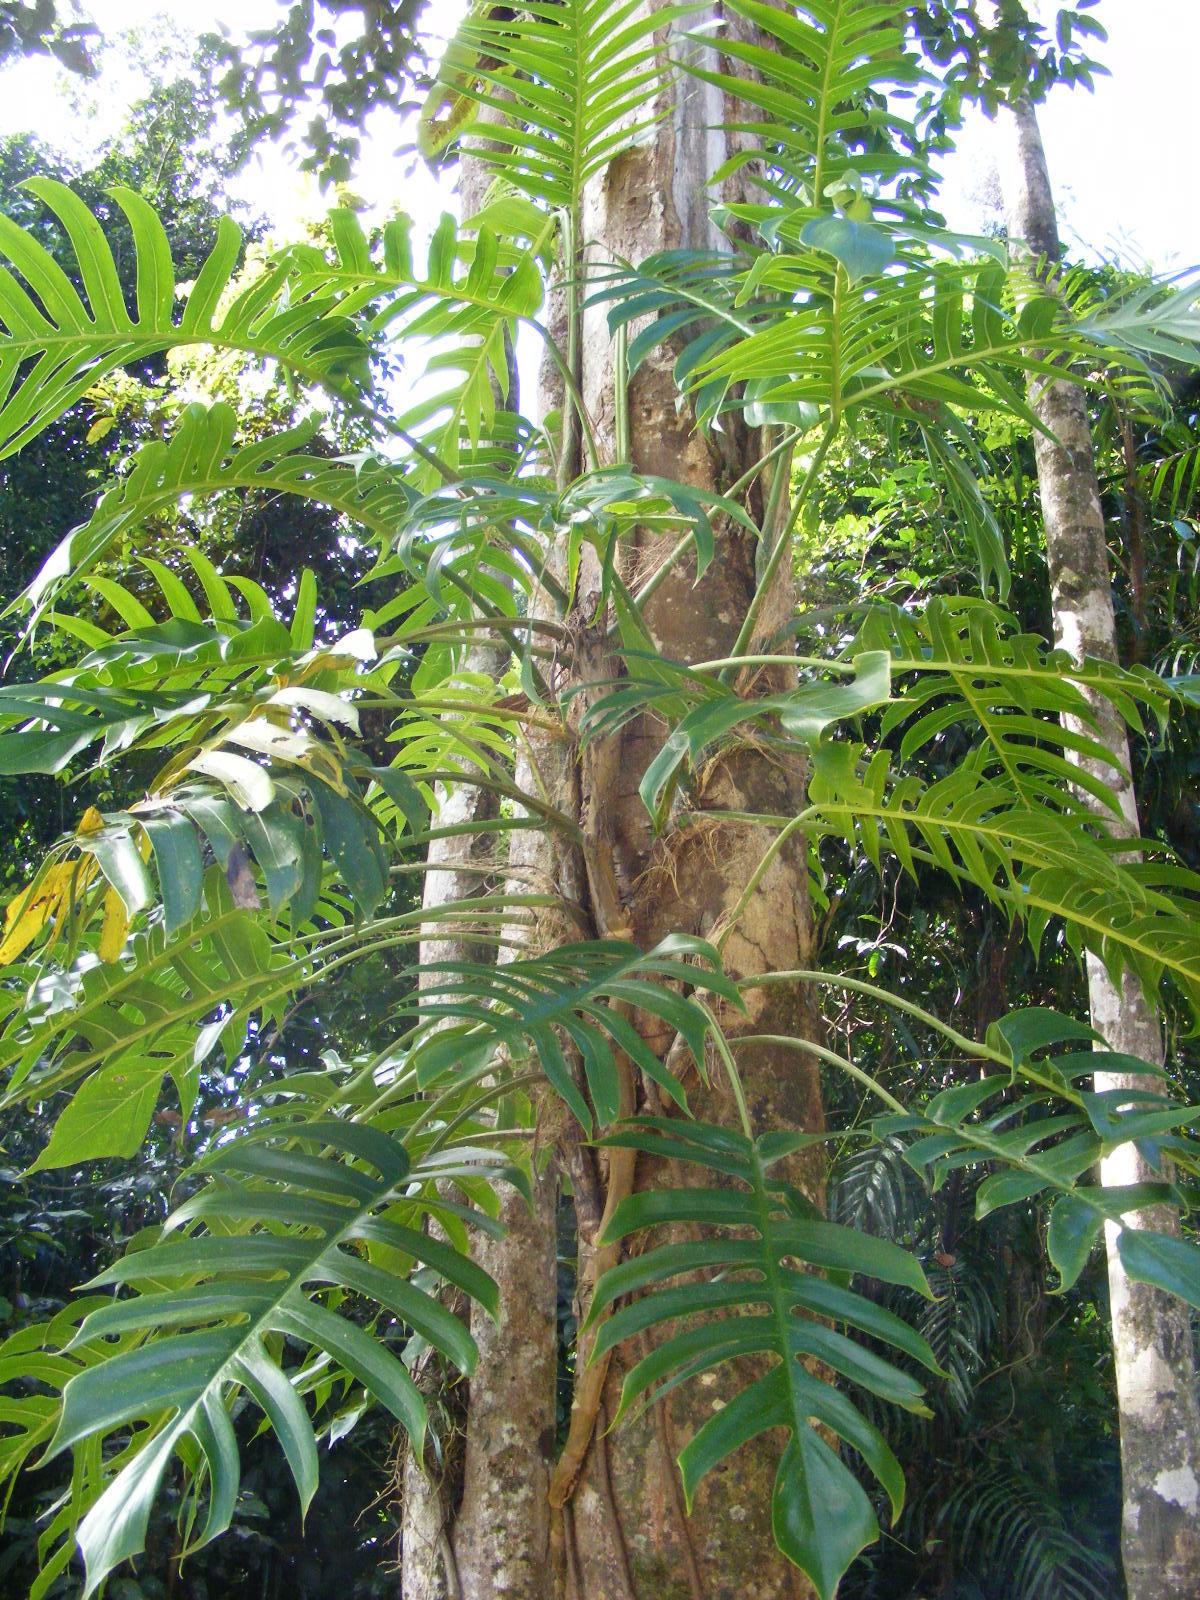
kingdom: Plantae
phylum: Tracheophyta
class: Liliopsida
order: Alismatales
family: Araceae
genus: Epipremnum
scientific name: Epipremnum pinnatum
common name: Centipede tongavine
